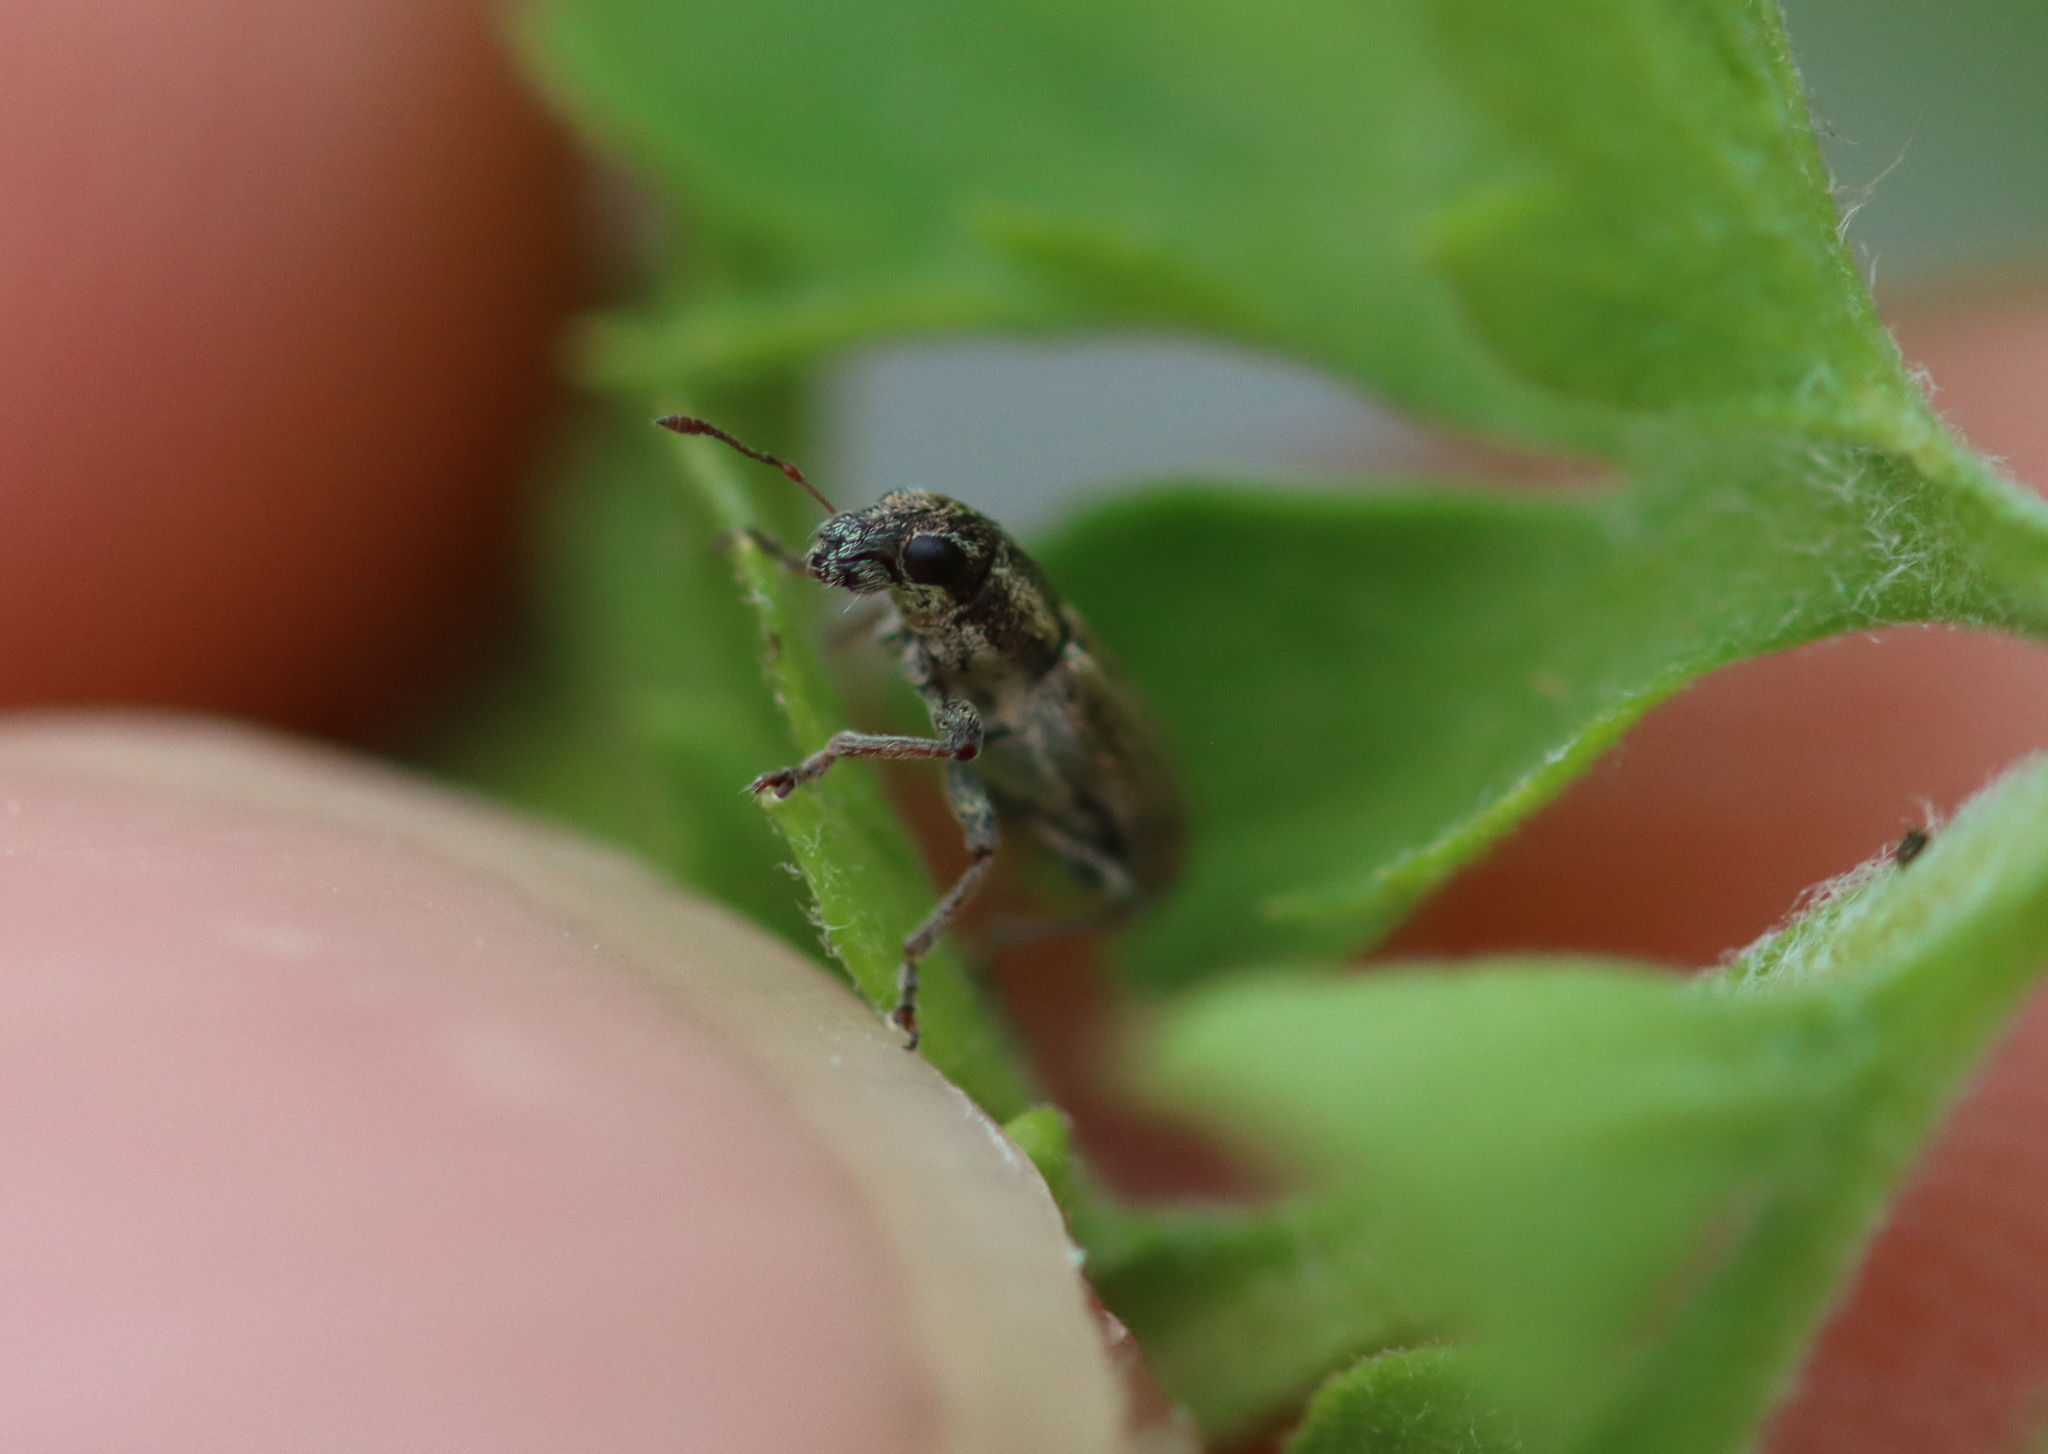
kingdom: Animalia
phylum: Arthropoda
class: Insecta
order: Coleoptera
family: Curculionidae
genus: Sitona
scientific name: Sitona lineatus
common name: Weevil
